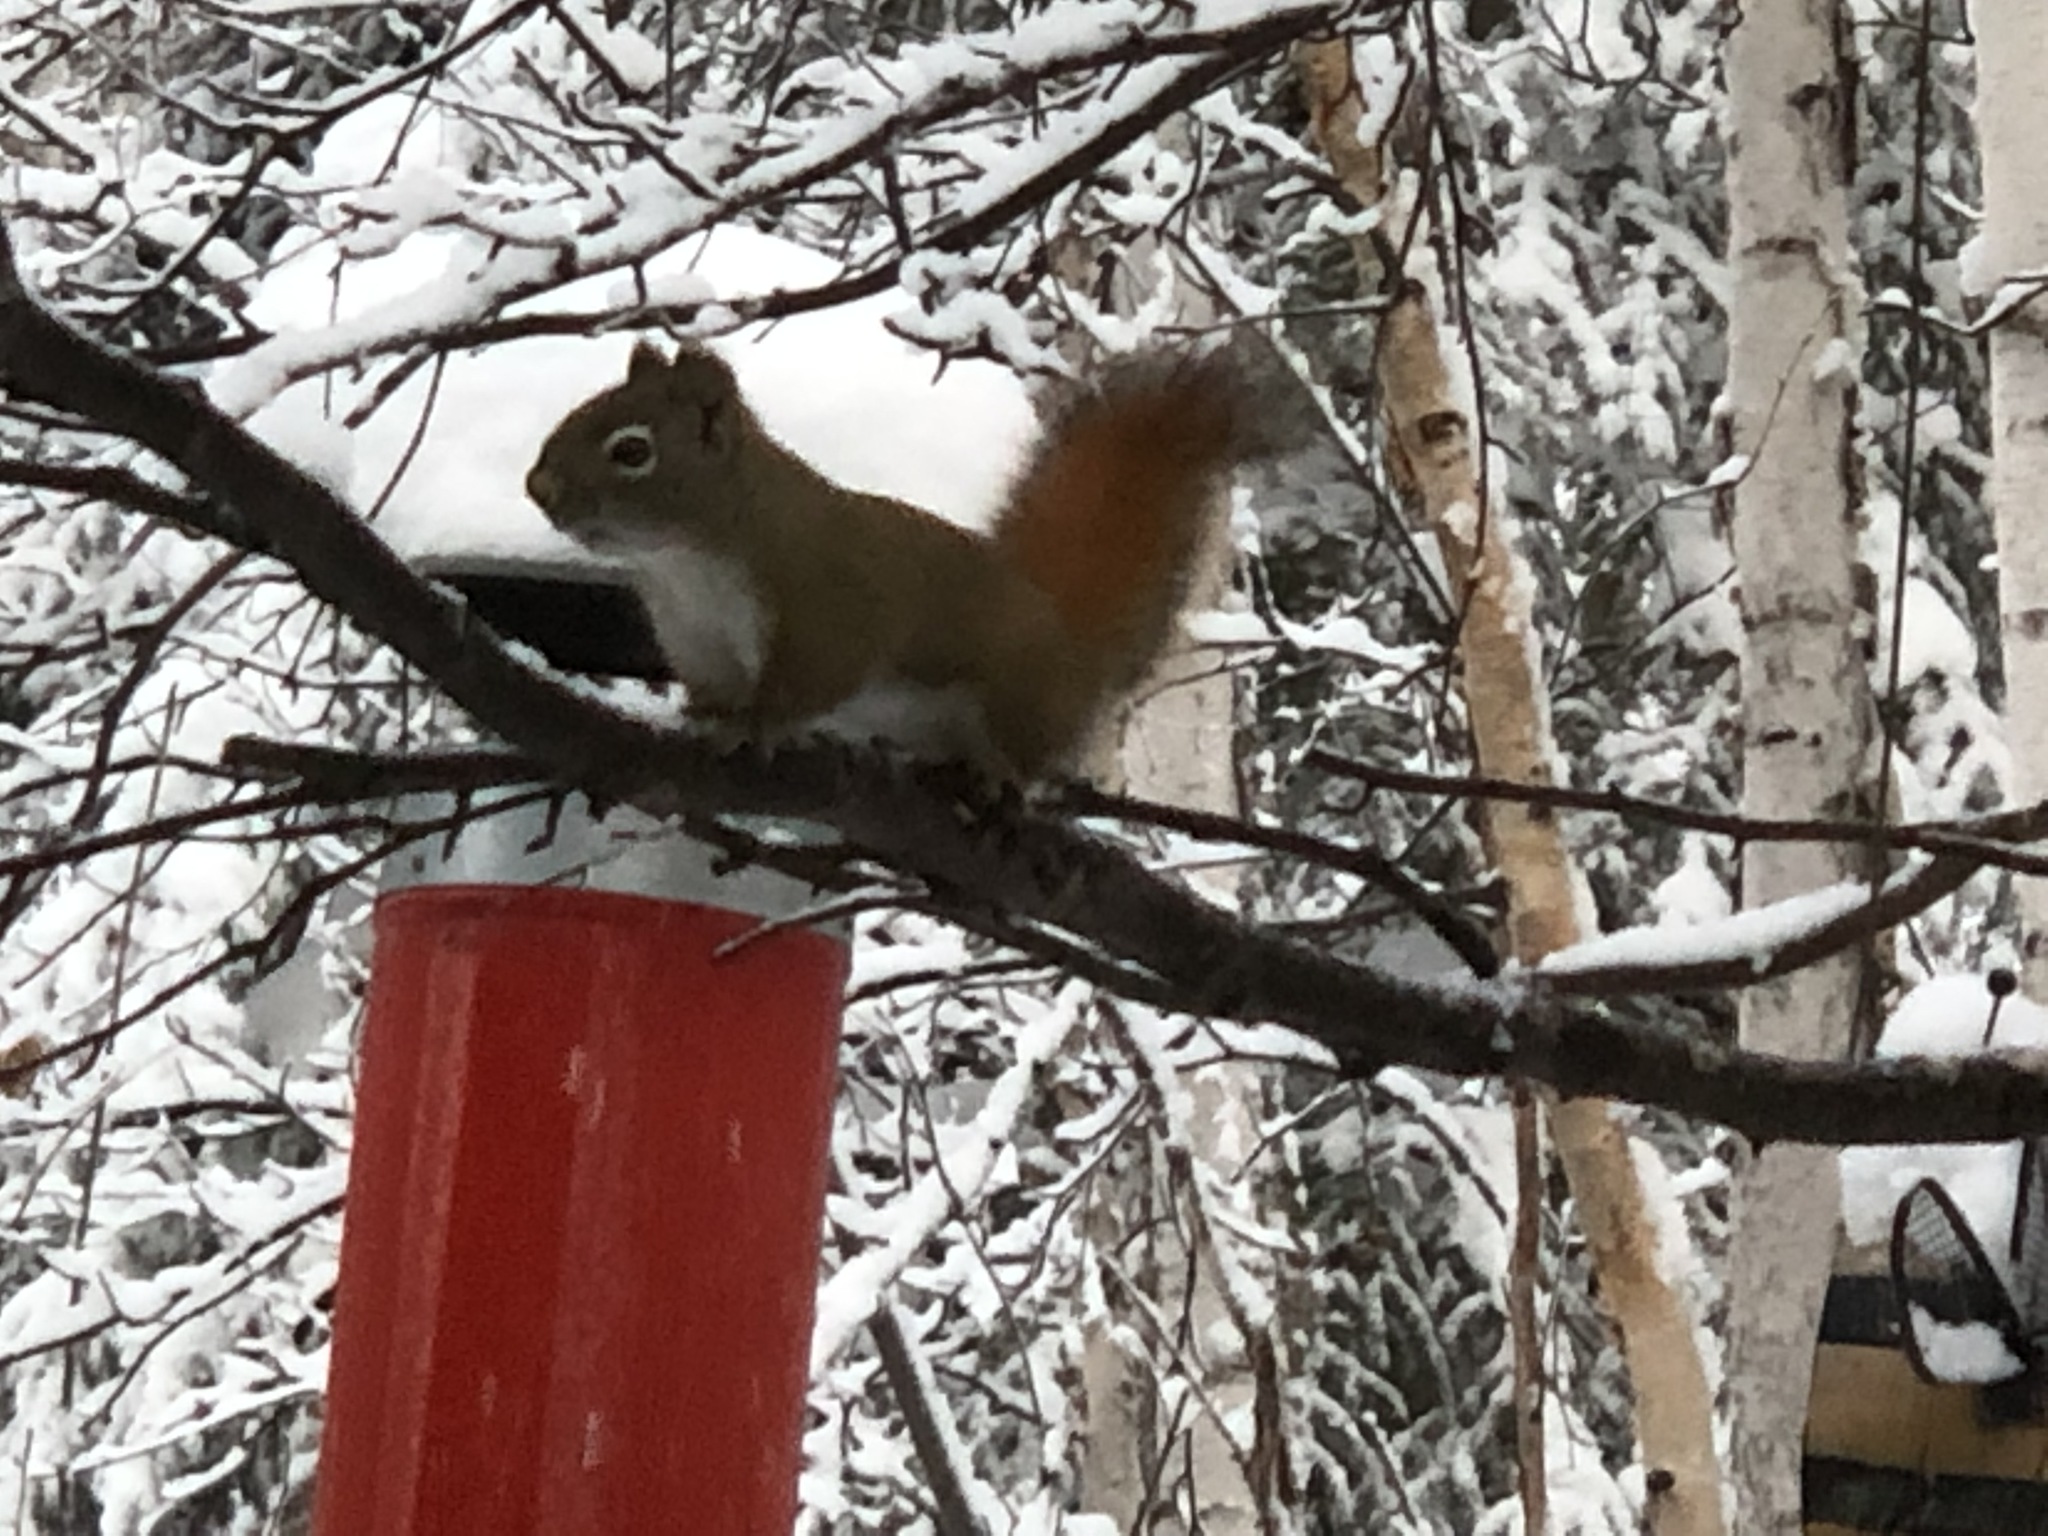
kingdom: Animalia
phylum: Chordata
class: Mammalia
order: Rodentia
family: Sciuridae
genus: Tamiasciurus
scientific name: Tamiasciurus hudsonicus
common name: Red squirrel
